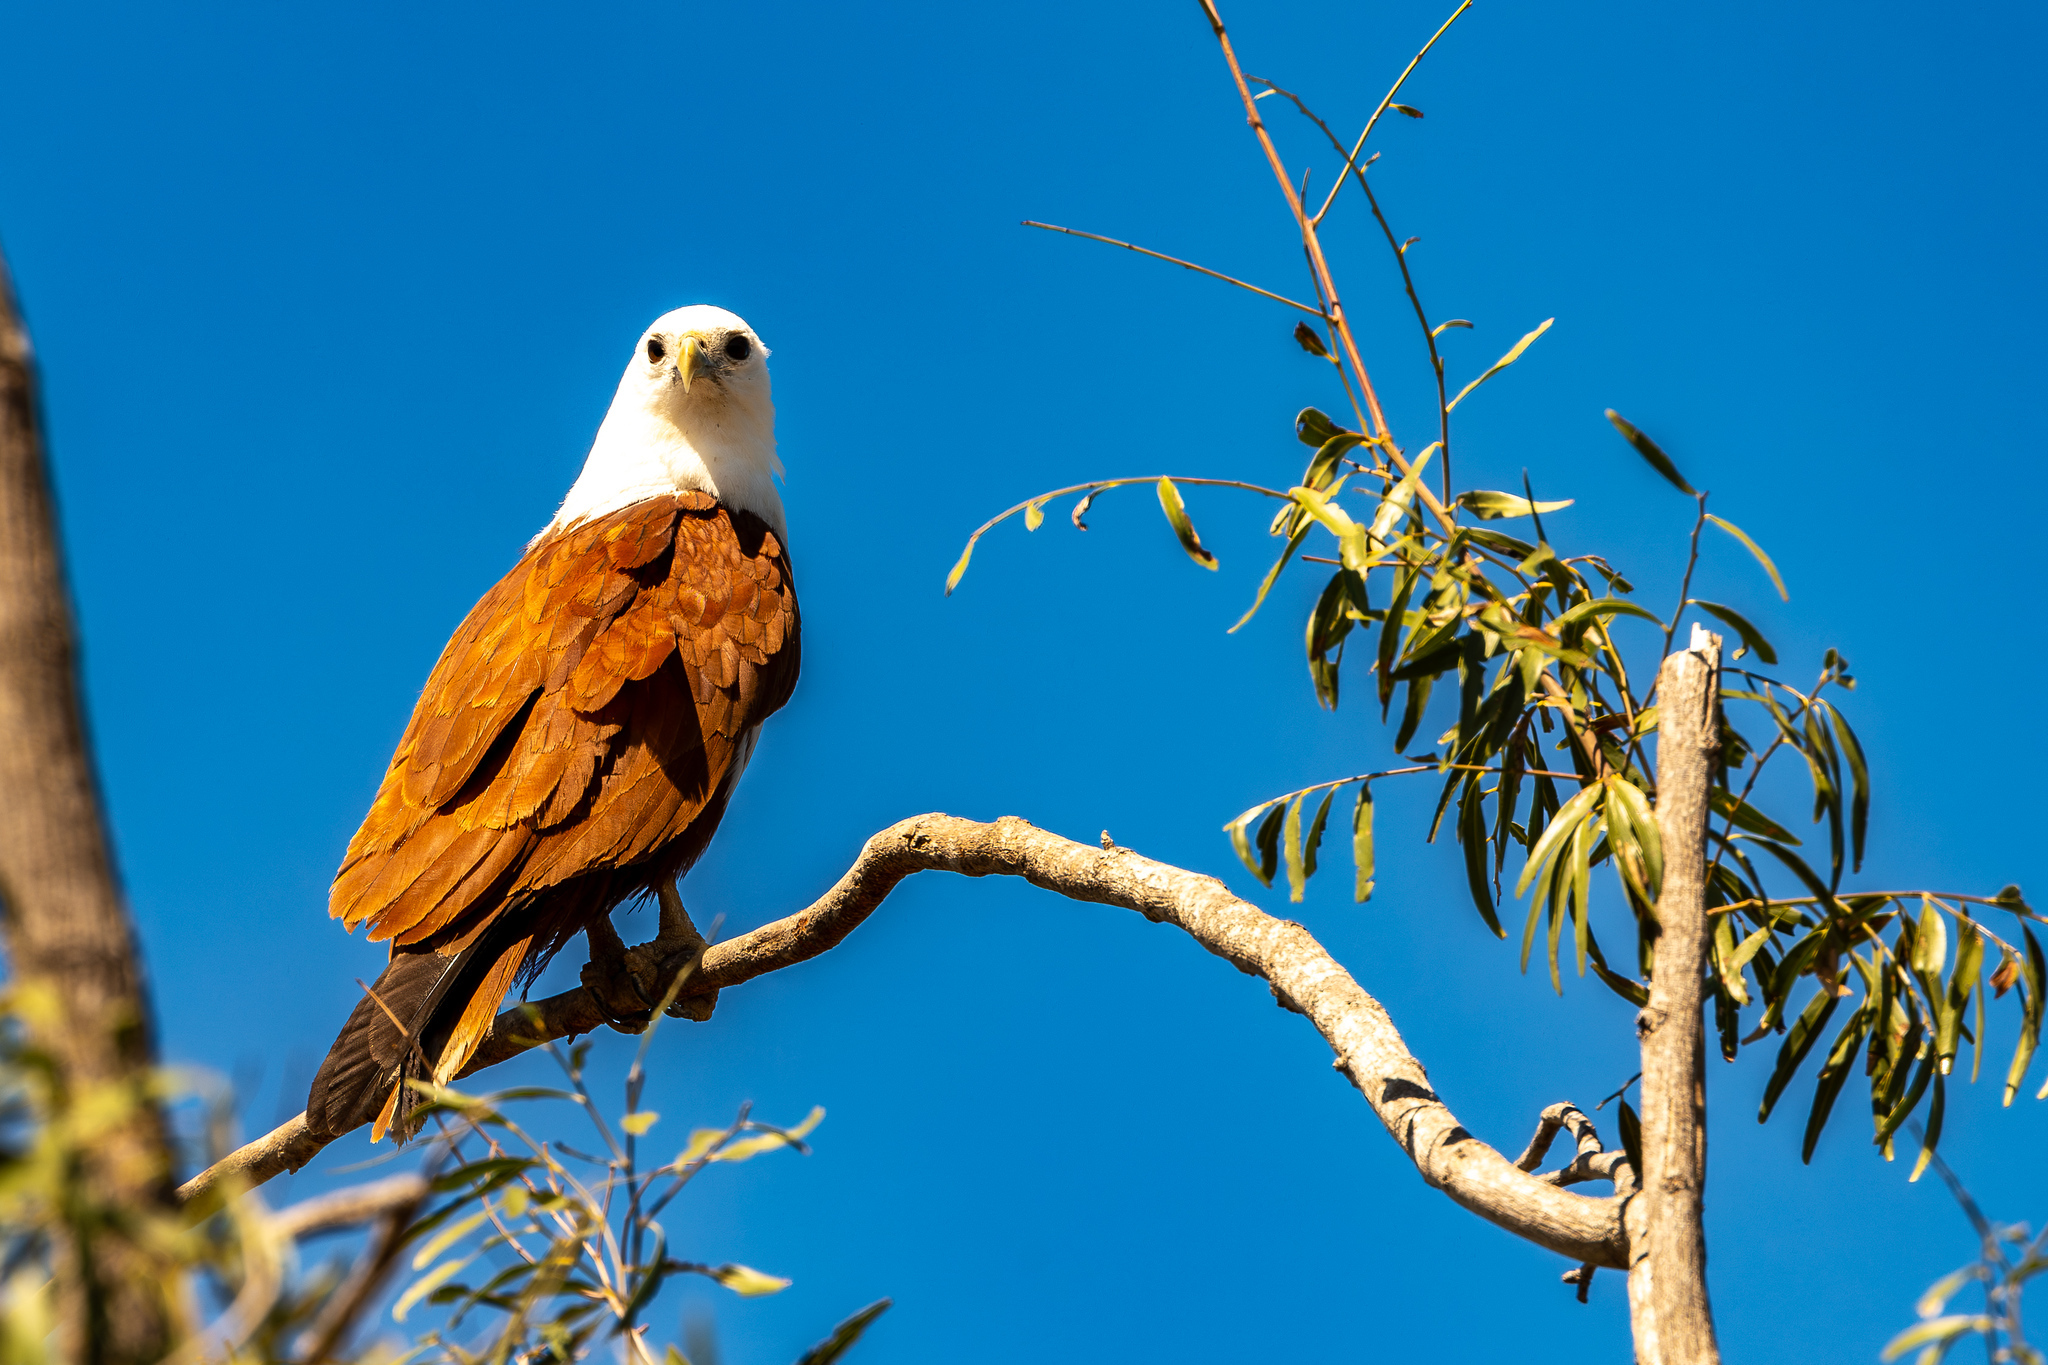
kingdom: Animalia
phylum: Chordata
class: Aves
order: Accipitriformes
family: Accipitridae
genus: Haliastur
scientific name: Haliastur indus
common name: Brahminy kite
